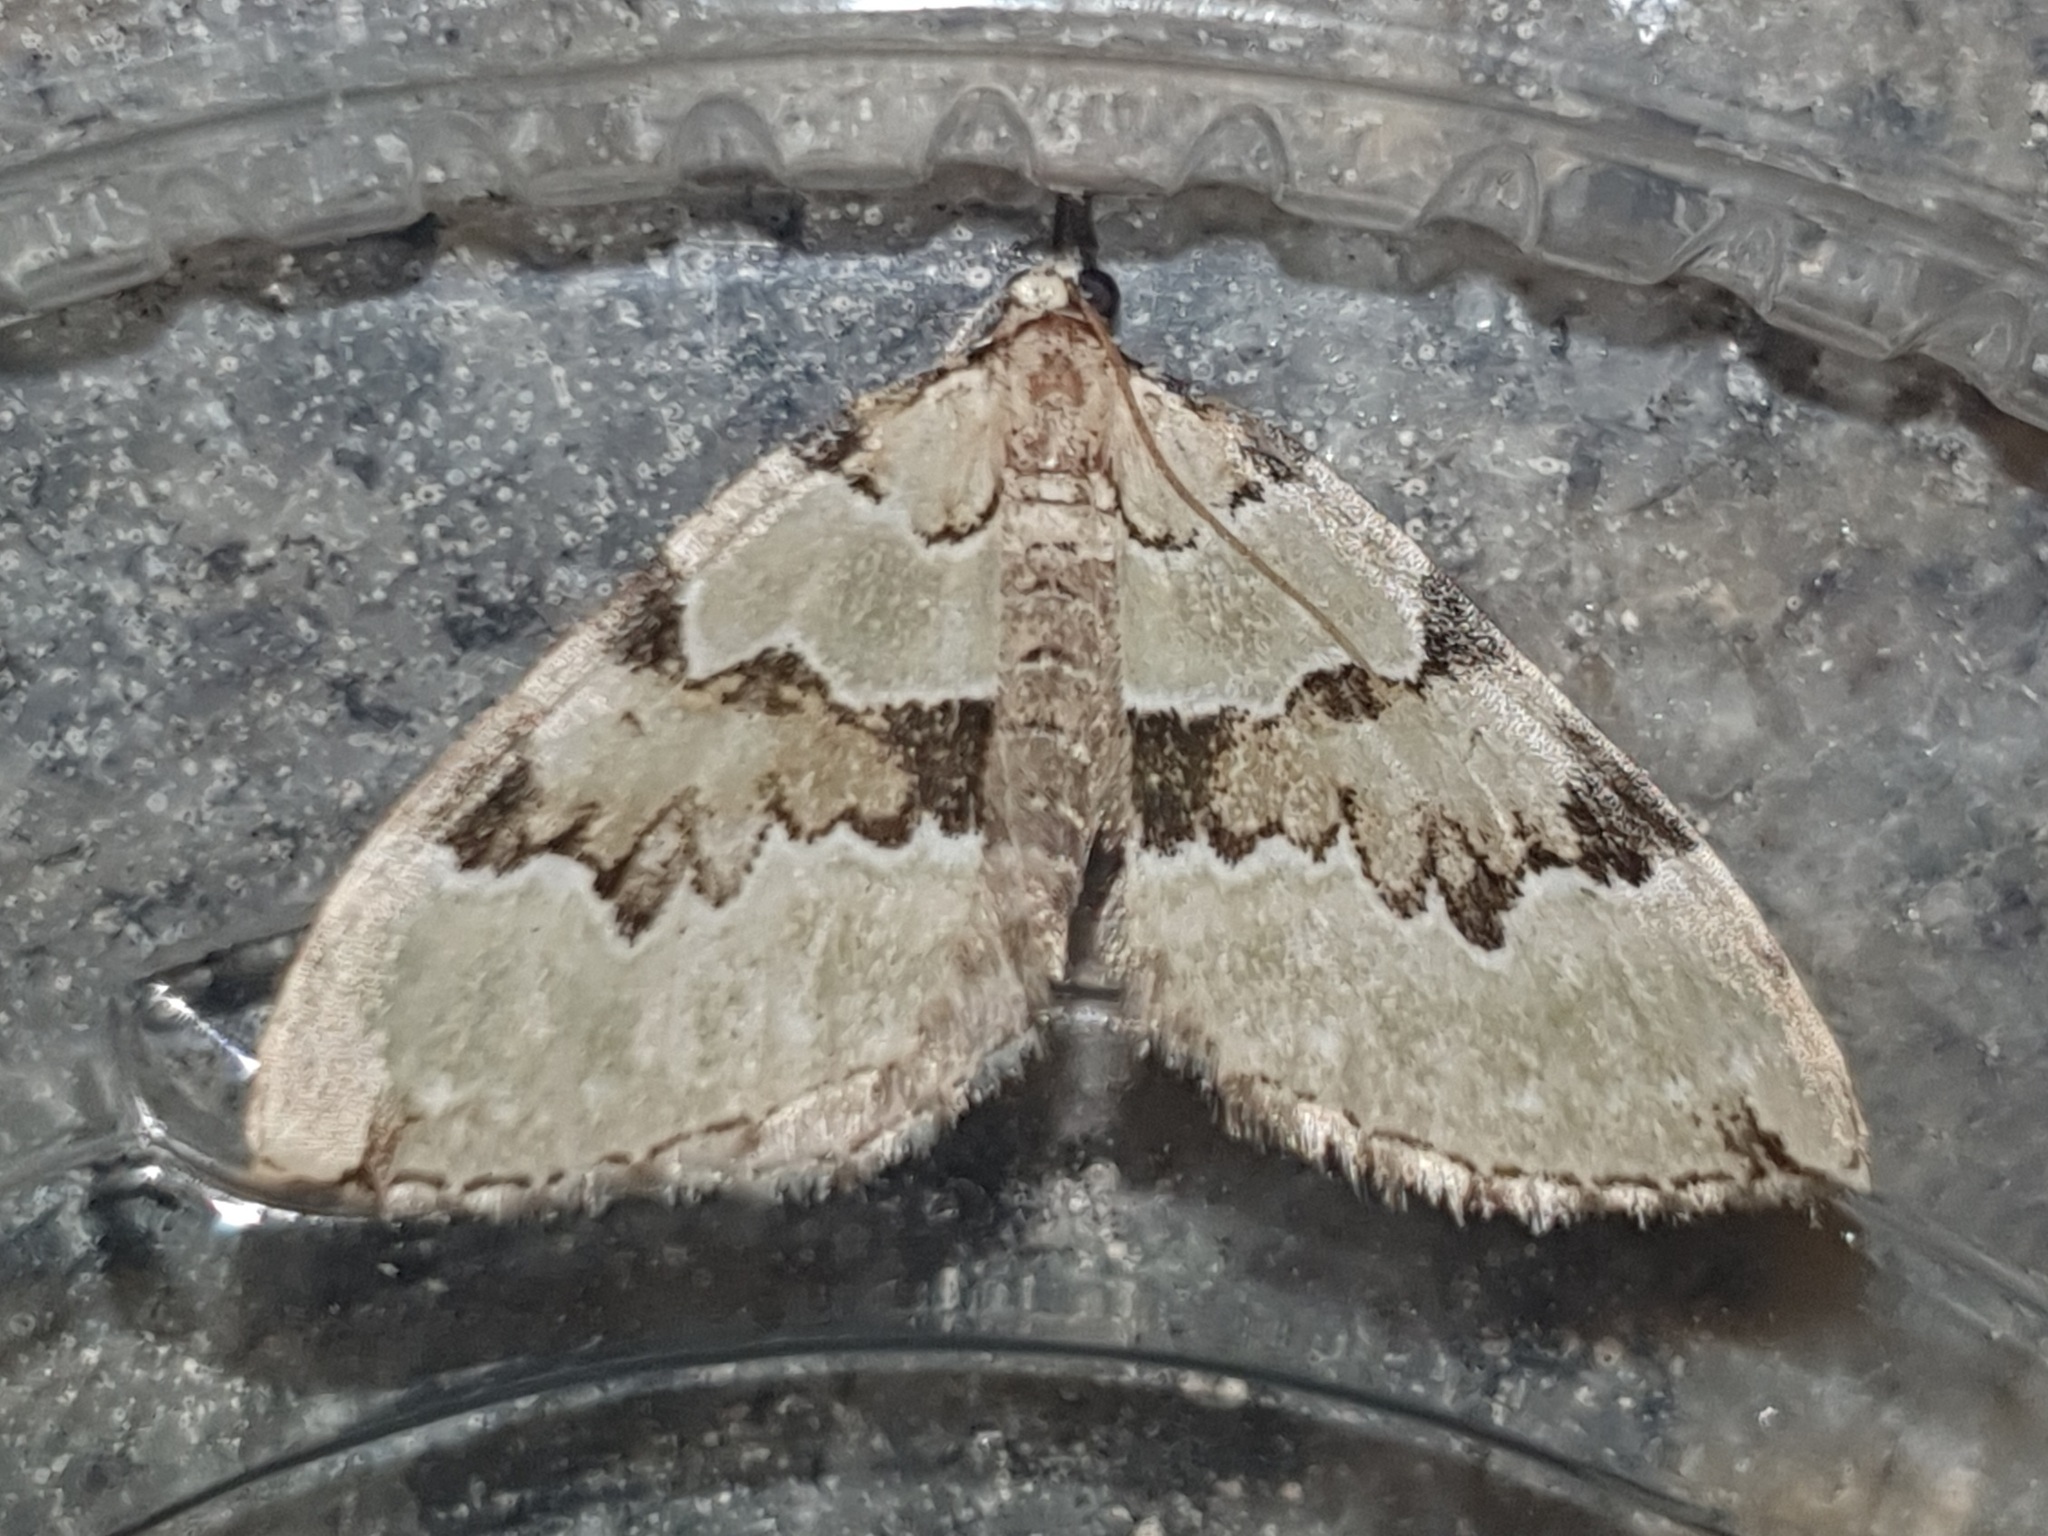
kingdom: Animalia
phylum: Arthropoda
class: Insecta
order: Lepidoptera
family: Geometridae
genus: Colostygia
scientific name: Colostygia pectinataria
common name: Green carpet
